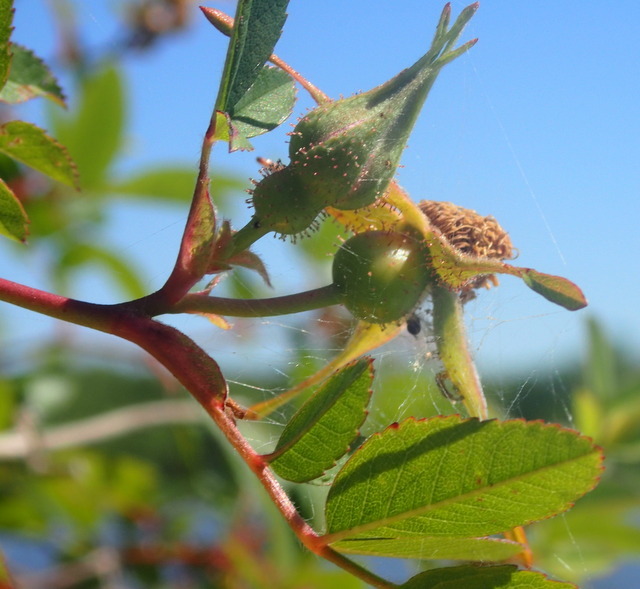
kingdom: Plantae
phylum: Tracheophyta
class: Magnoliopsida
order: Rosales
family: Rosaceae
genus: Rosa
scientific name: Rosa palustris
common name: Swamp rose
